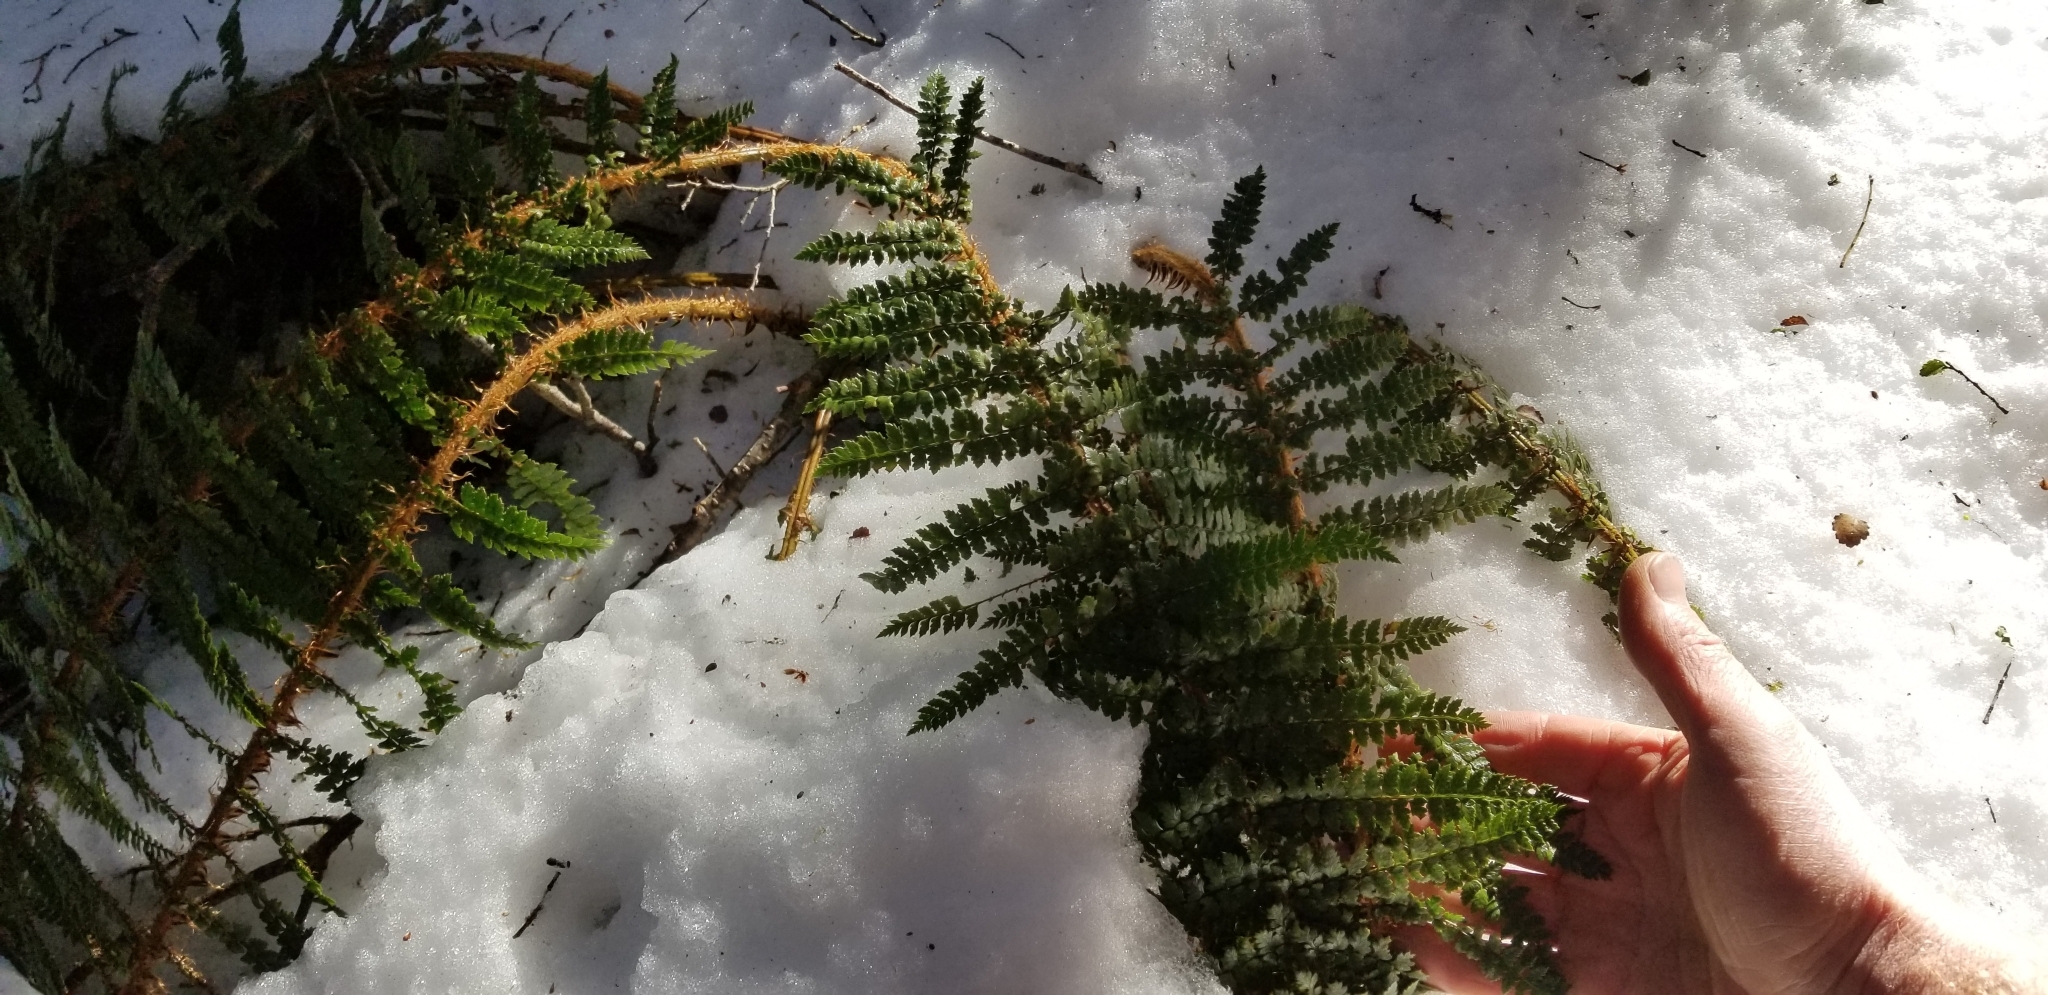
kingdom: Plantae
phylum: Tracheophyta
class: Polypodiopsida
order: Polypodiales
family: Dryopteridaceae
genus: Polystichum
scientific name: Polystichum vestitum
